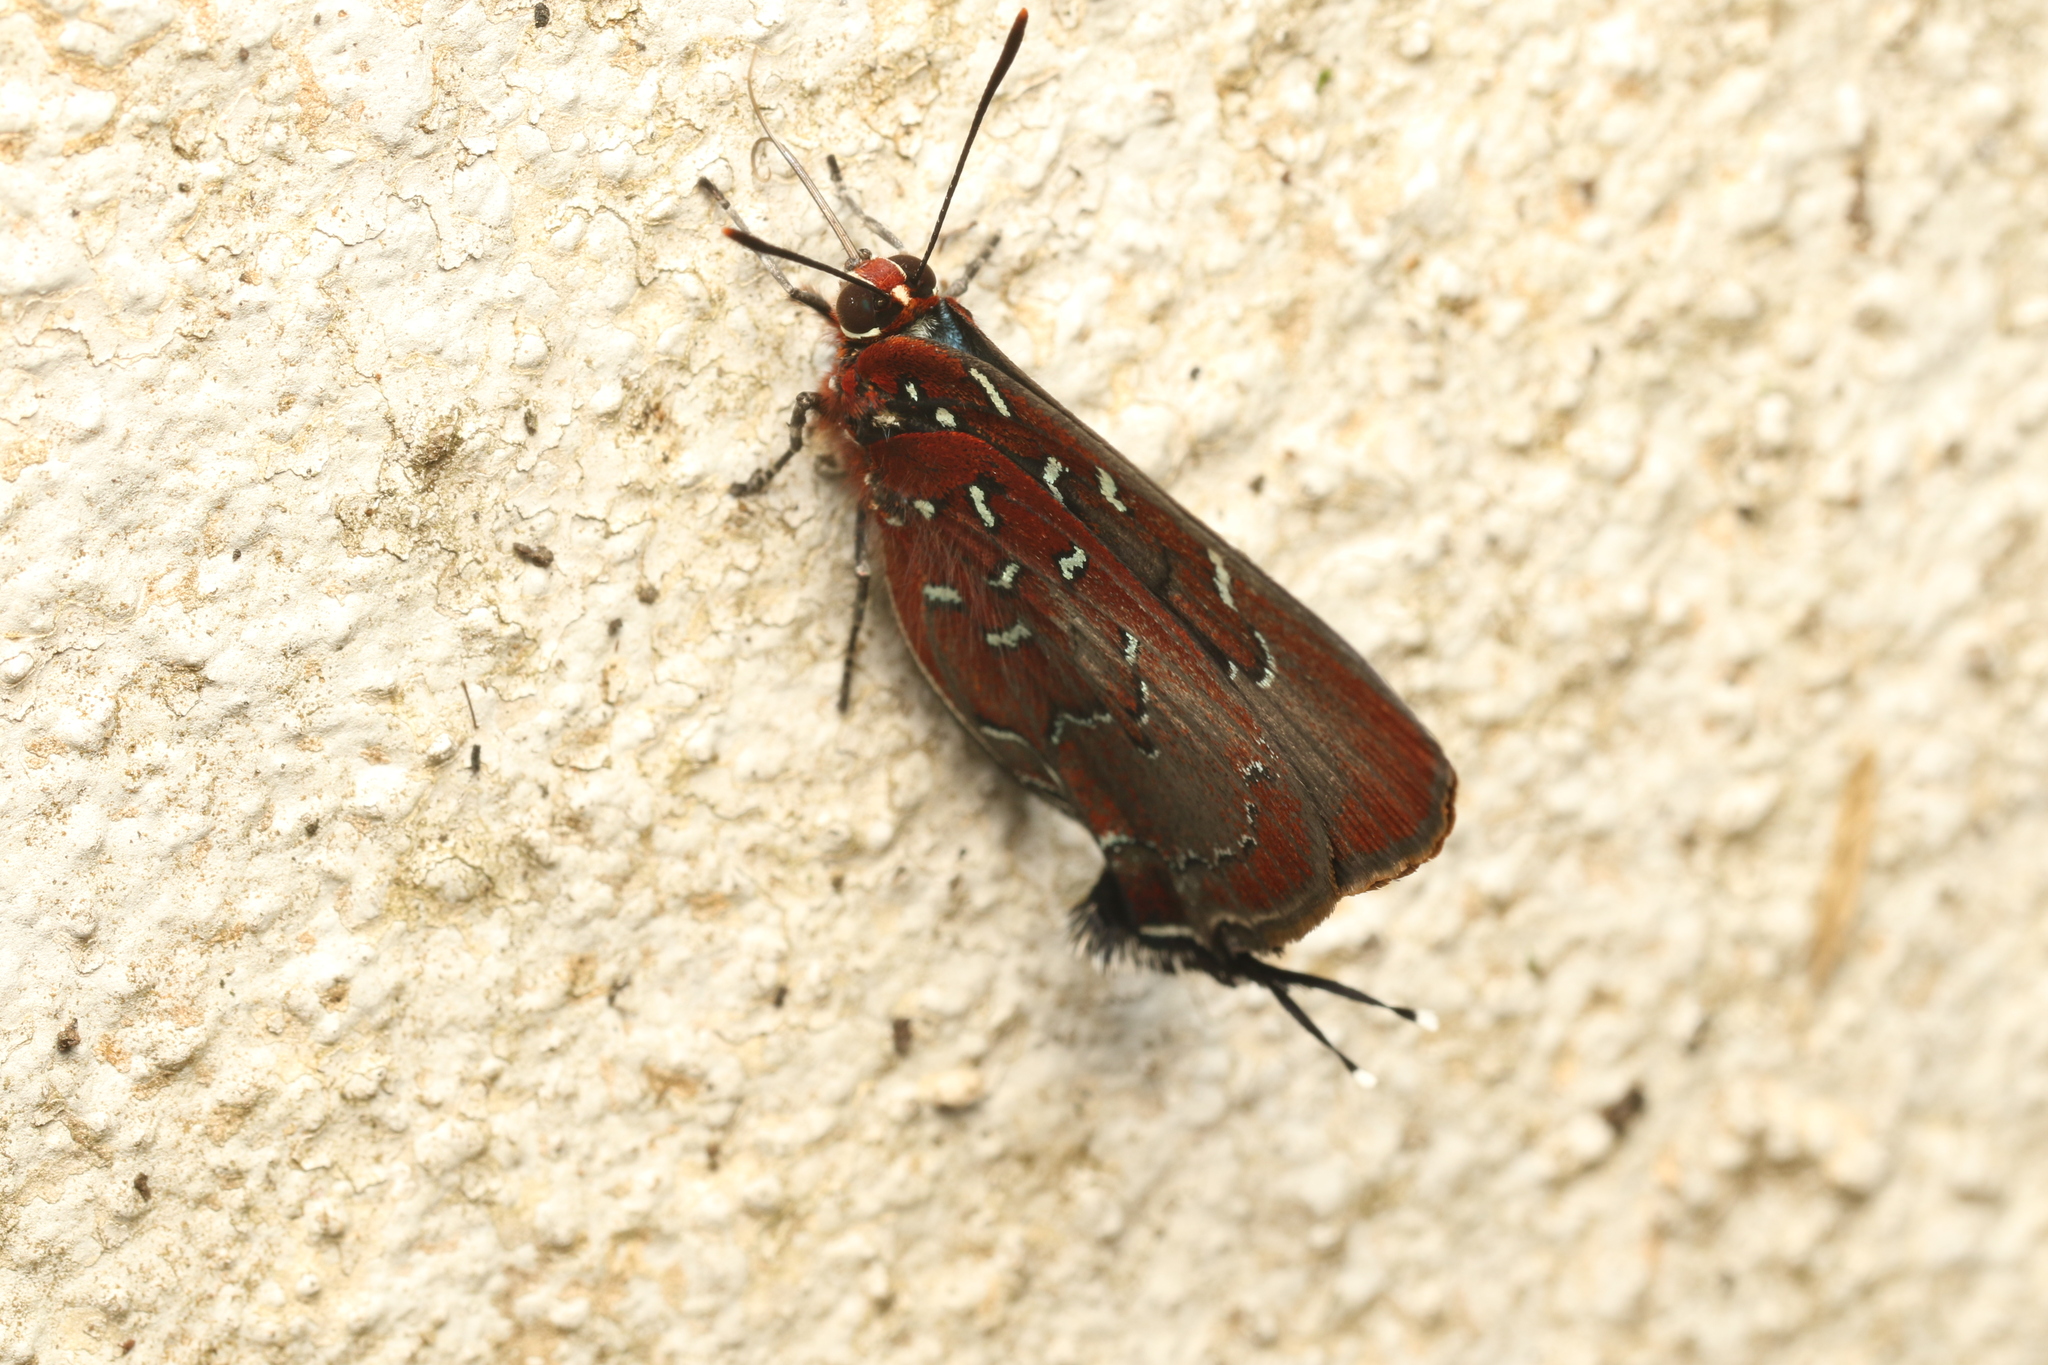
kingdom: Animalia
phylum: Arthropoda
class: Insecta
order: Lepidoptera
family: Lycaenidae
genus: Atlides
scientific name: Atlides
